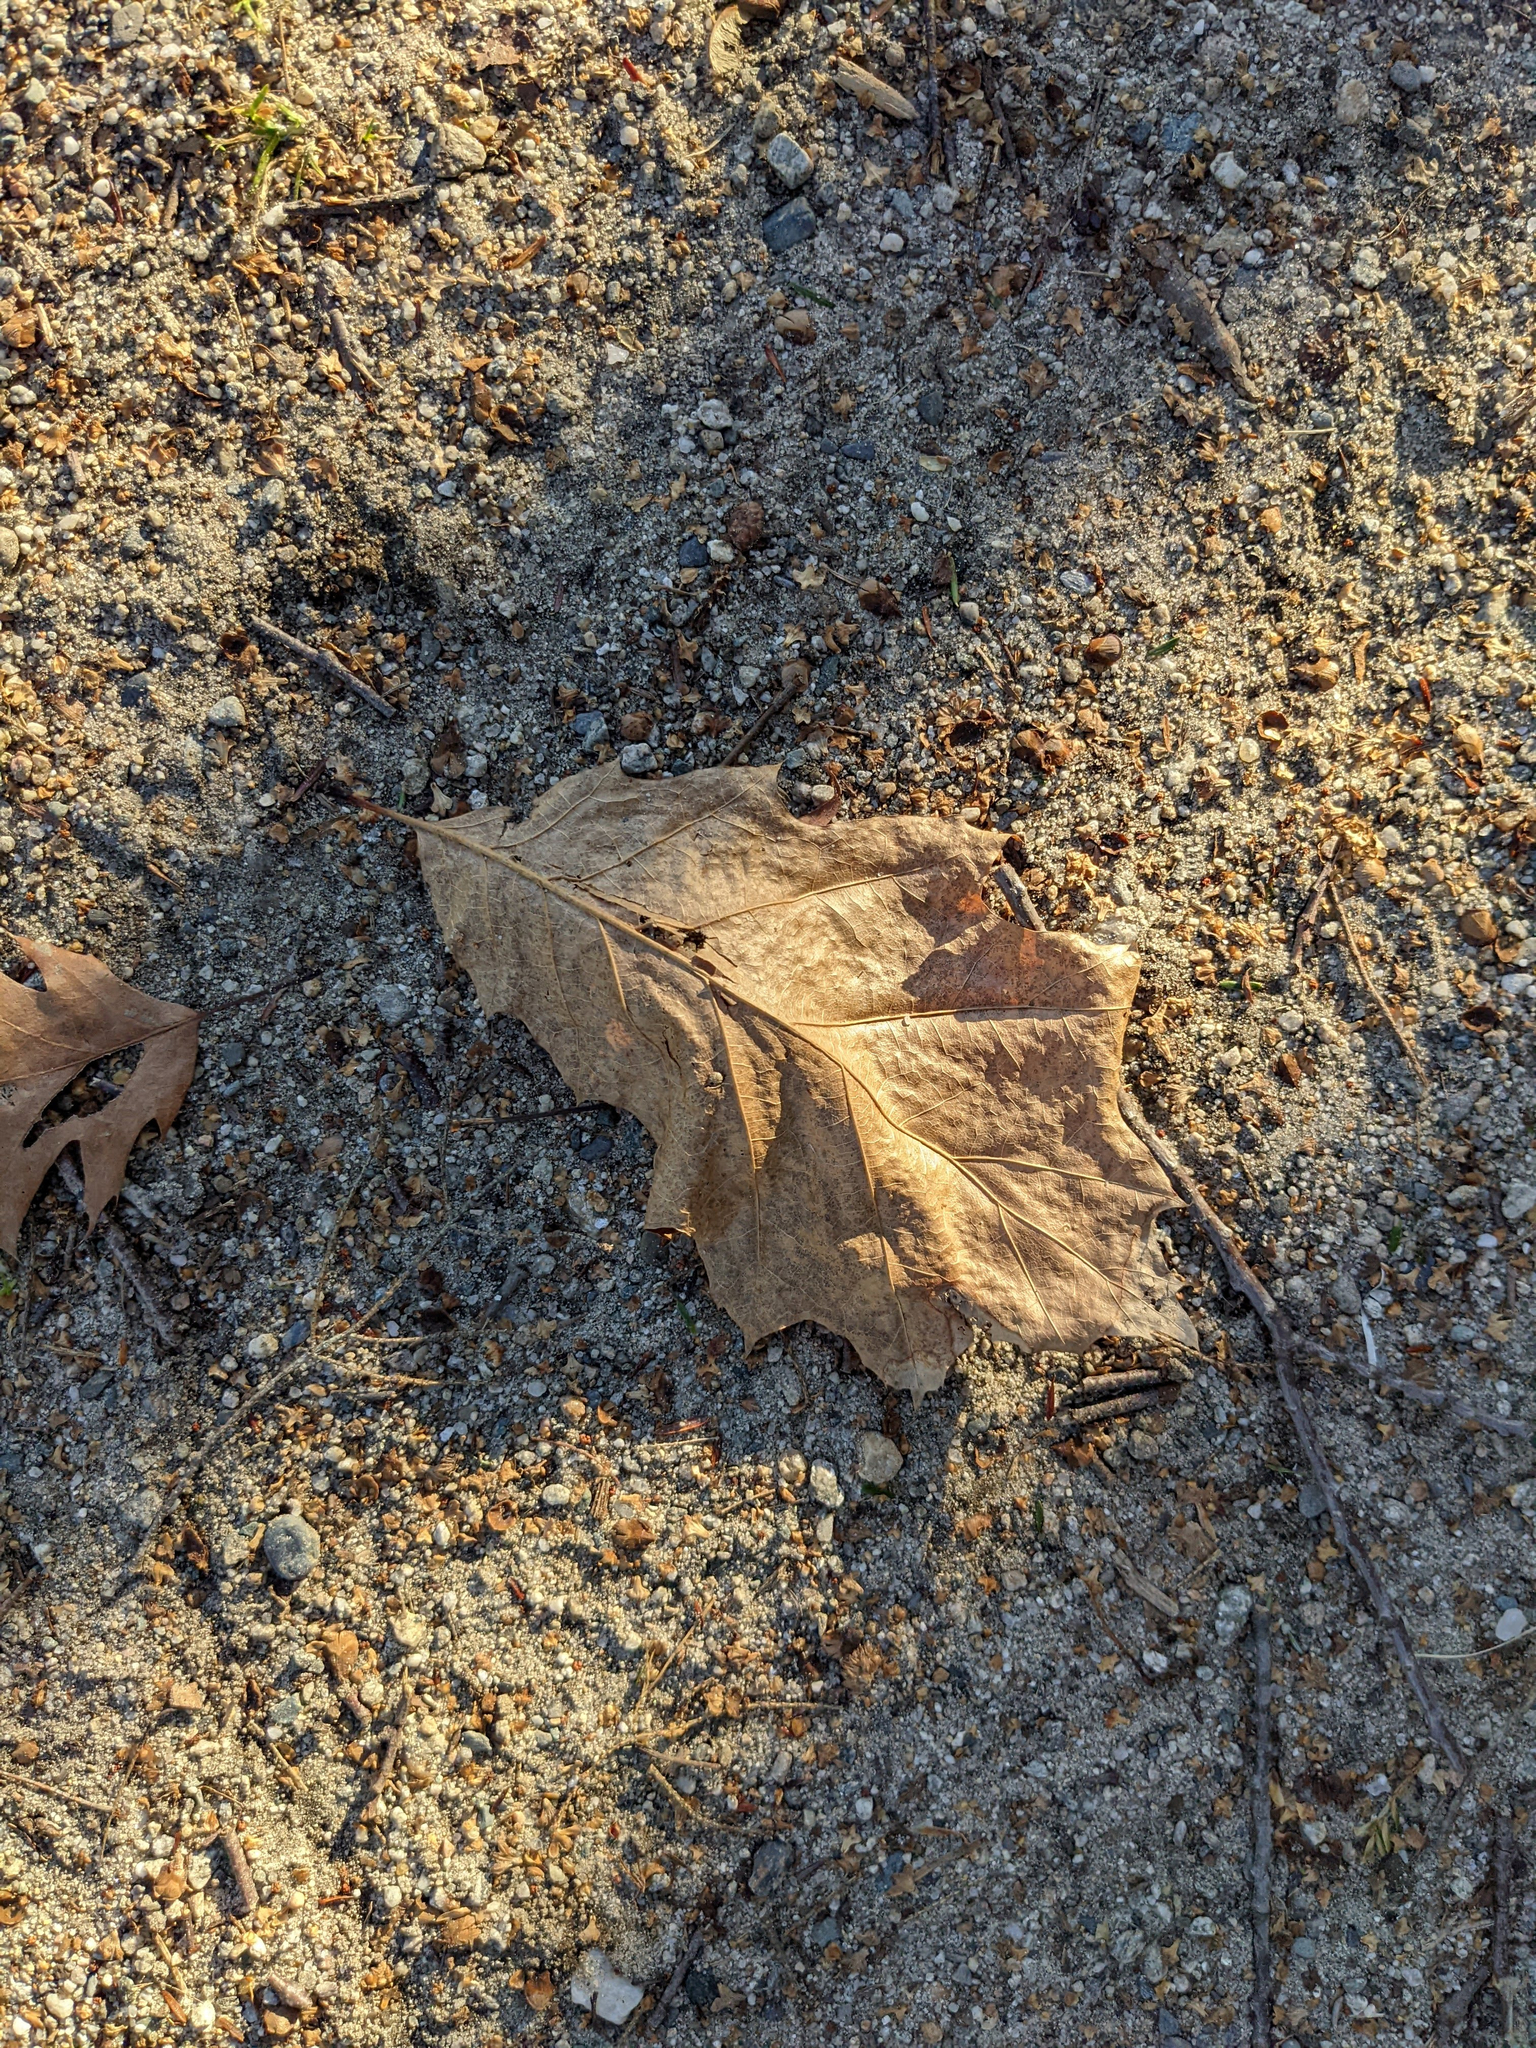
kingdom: Plantae
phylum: Tracheophyta
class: Magnoliopsida
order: Fagales
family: Fagaceae
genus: Quercus
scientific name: Quercus rubra
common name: Red oak
